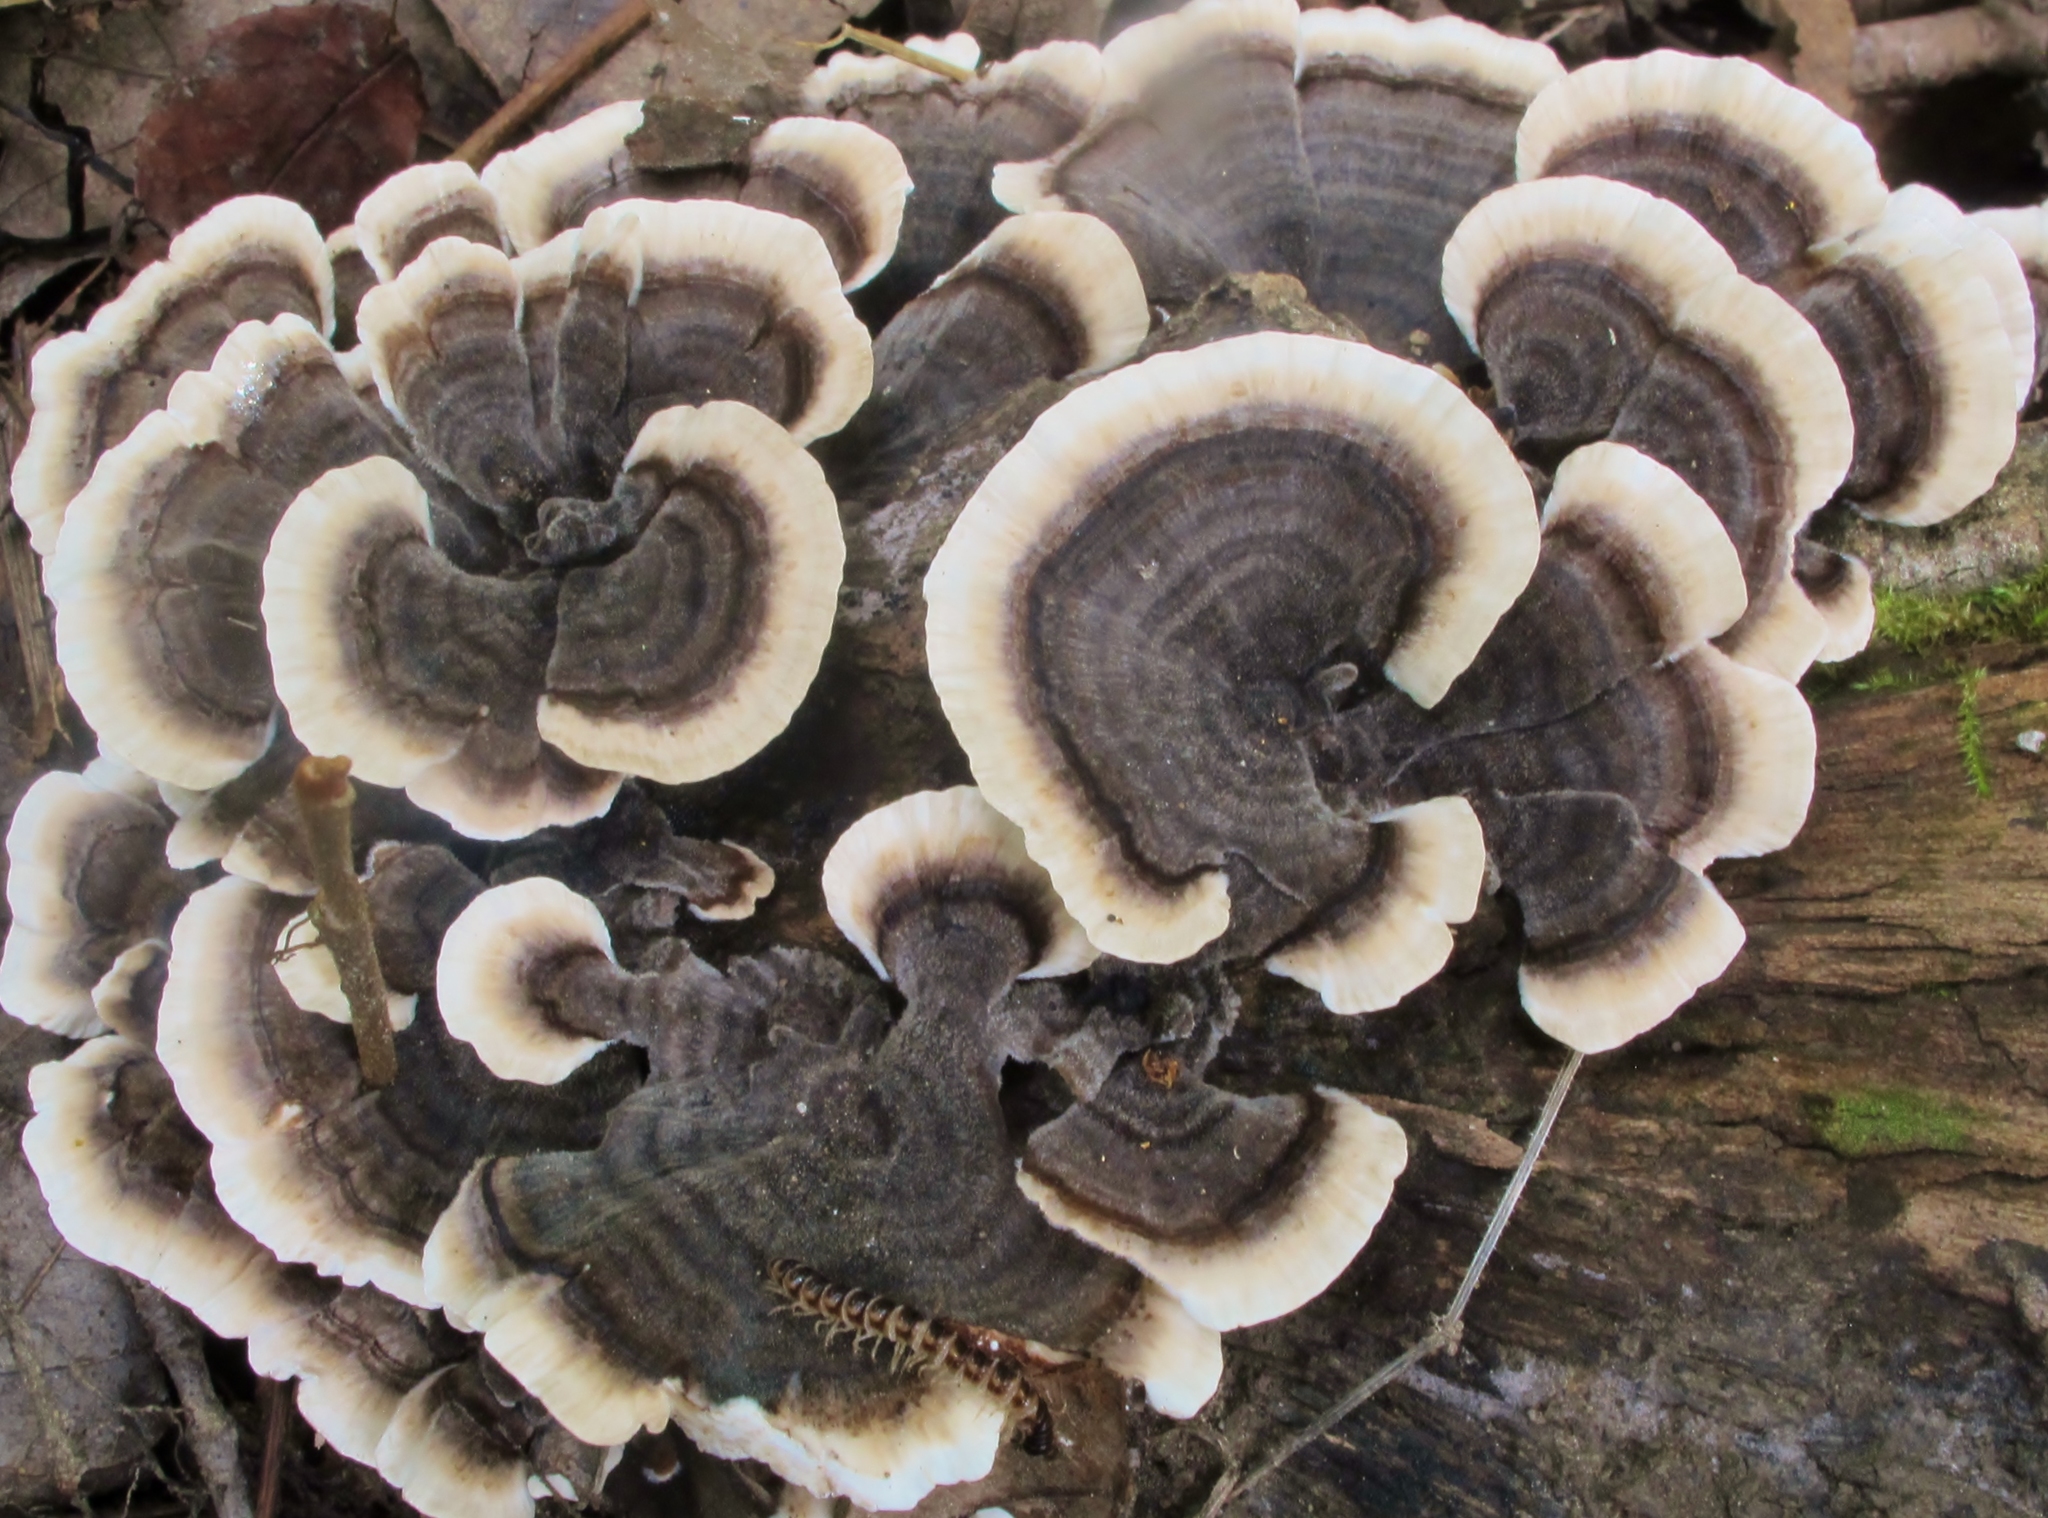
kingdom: Fungi
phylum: Basidiomycota
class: Agaricomycetes
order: Polyporales
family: Polyporaceae
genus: Trametes
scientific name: Trametes versicolor
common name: Turkeytail
